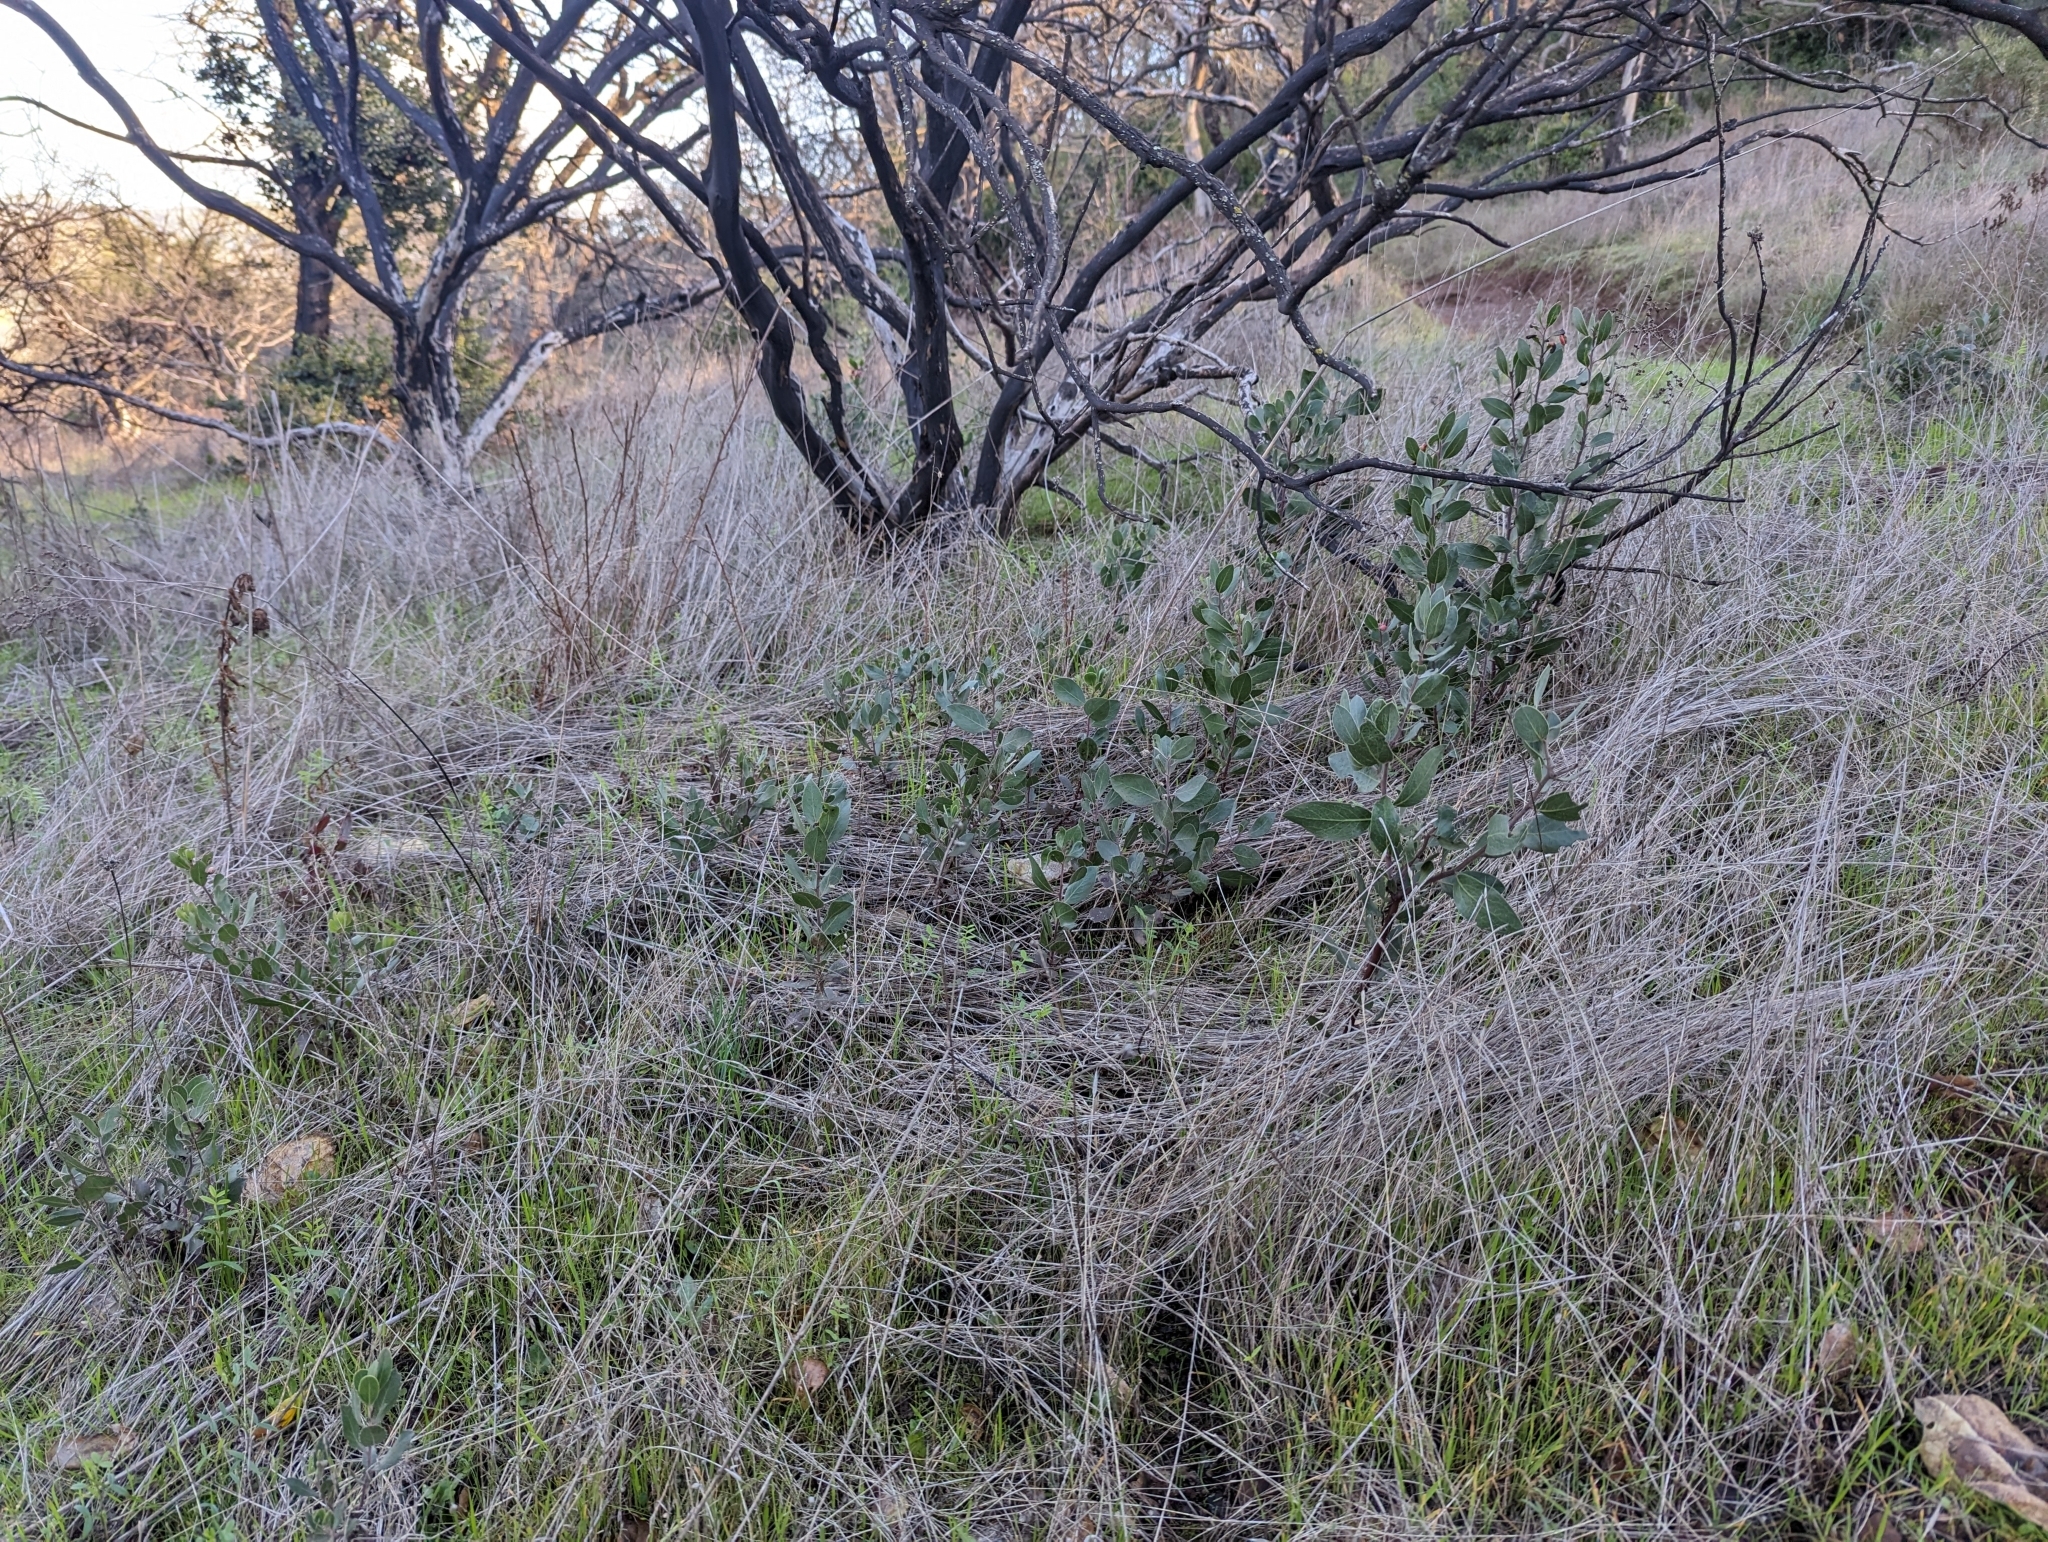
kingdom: Animalia
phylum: Arthropoda
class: Insecta
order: Hemiptera
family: Aphididae
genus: Tamalia
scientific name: Tamalia coweni
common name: Manzanita leafgall aphid
